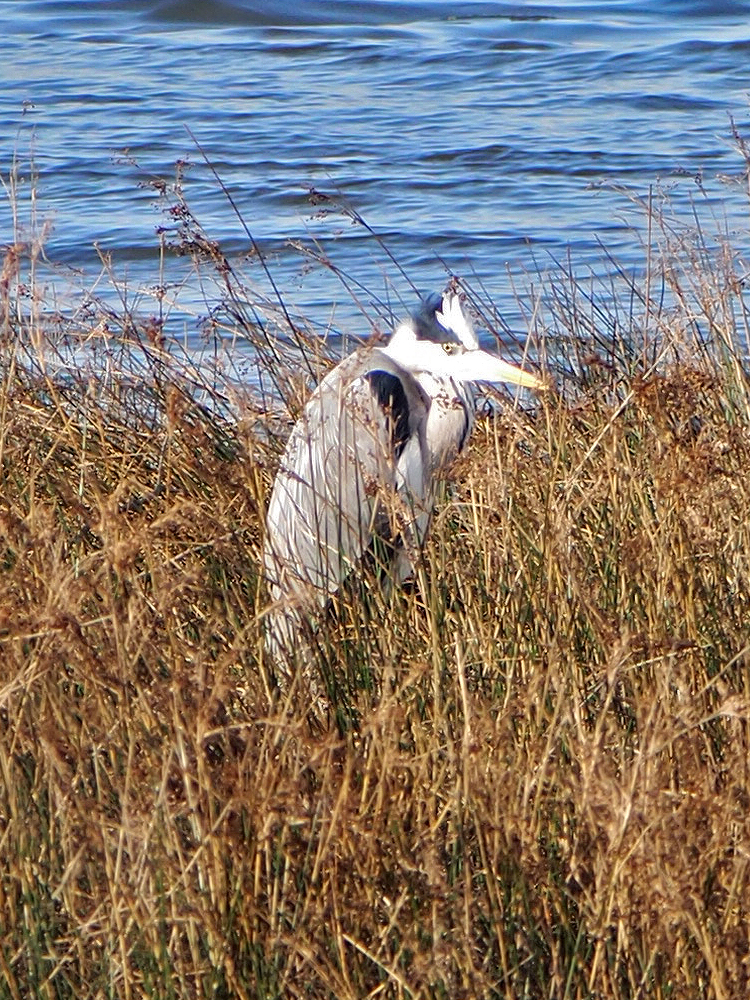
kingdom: Animalia
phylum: Chordata
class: Aves
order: Pelecaniformes
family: Ardeidae
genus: Ardea
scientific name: Ardea cinerea
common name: Grey heron
